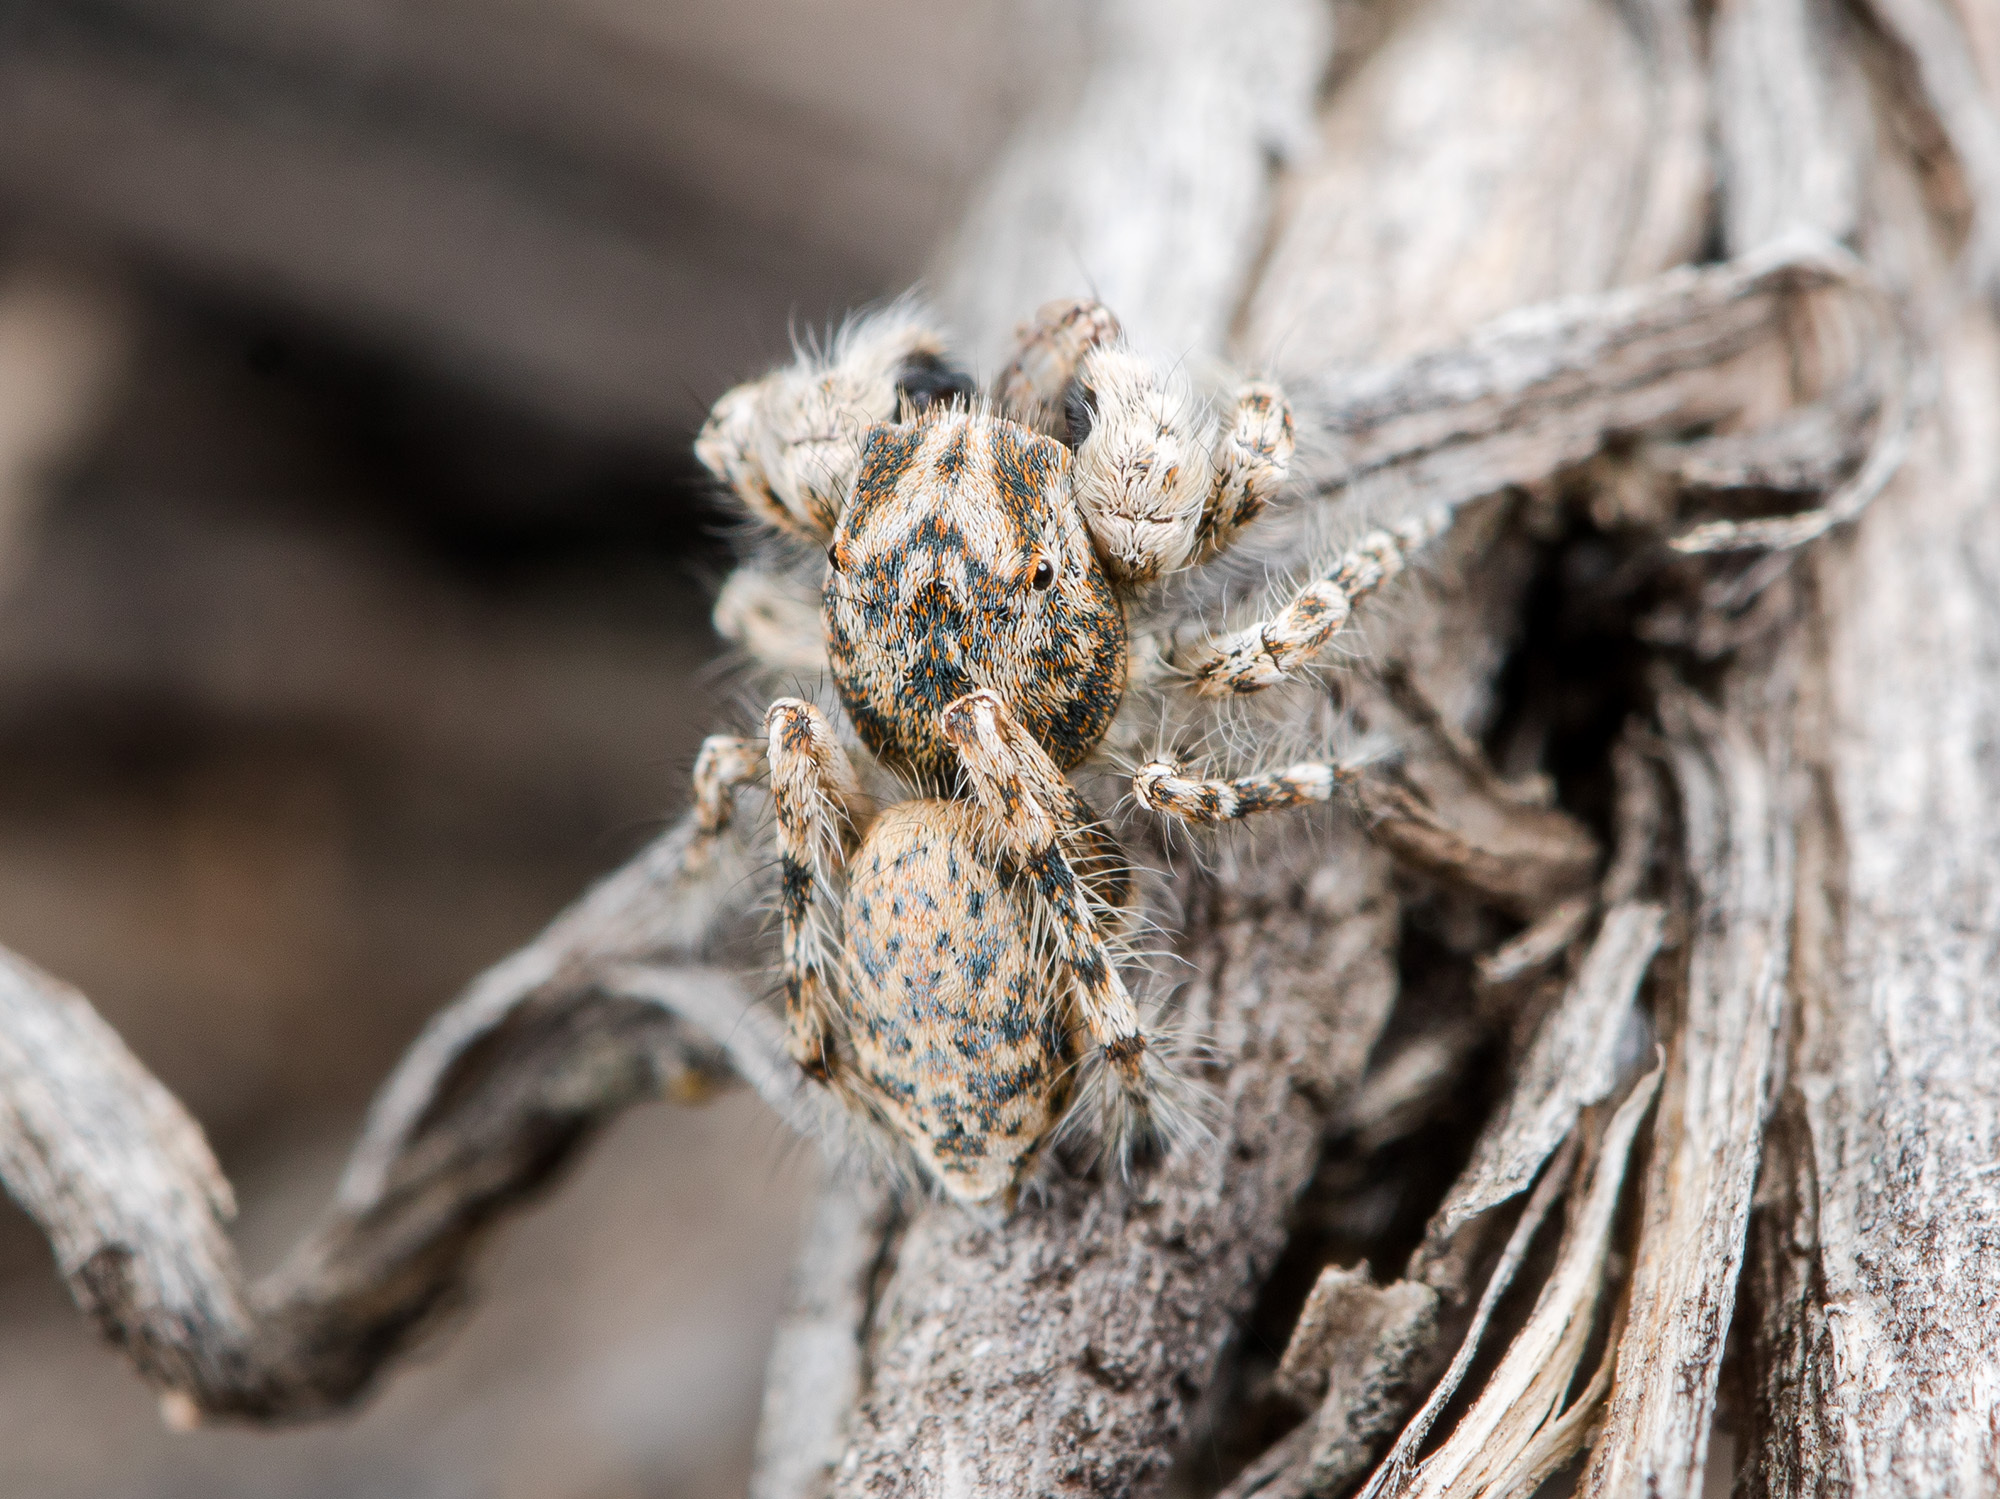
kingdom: Animalia
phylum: Arthropoda
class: Arachnida
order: Araneae
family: Salticidae
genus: Yllenus
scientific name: Yllenus uiguricus
